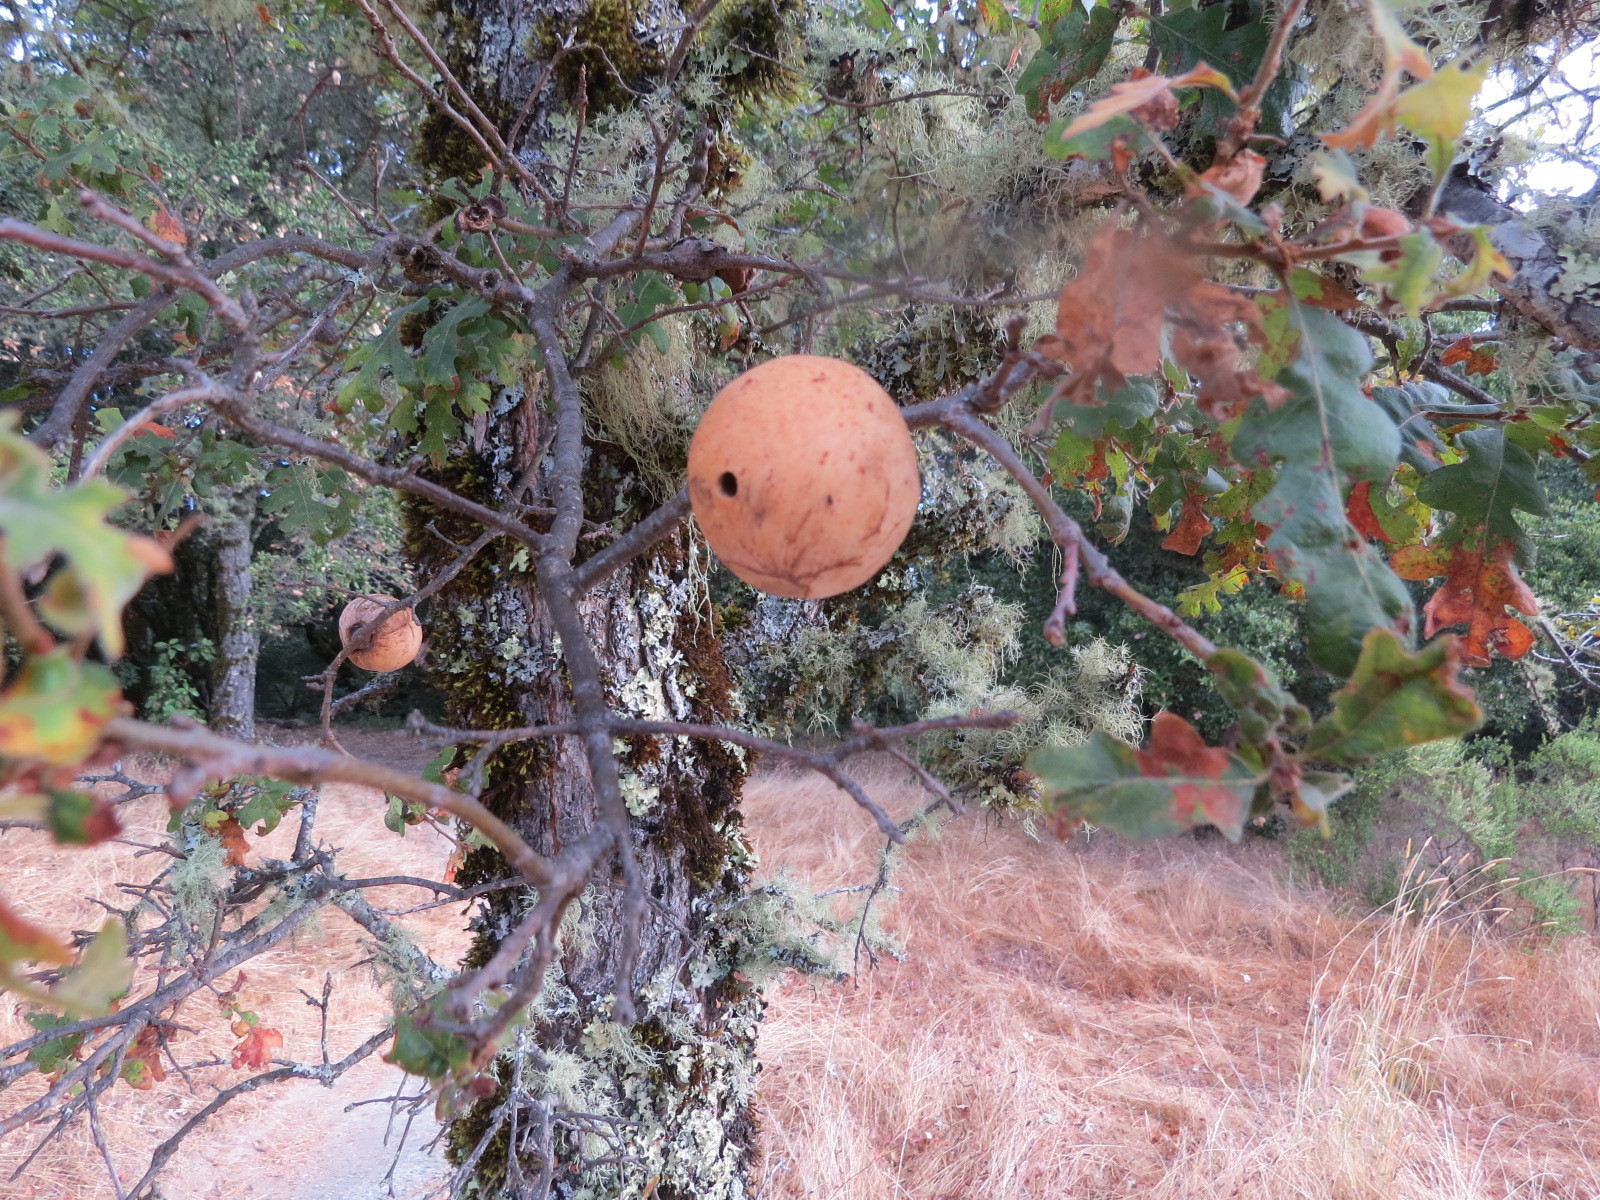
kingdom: Animalia
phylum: Arthropoda
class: Insecta
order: Hymenoptera
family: Cynipidae
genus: Andricus
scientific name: Andricus quercuscalifornicus
